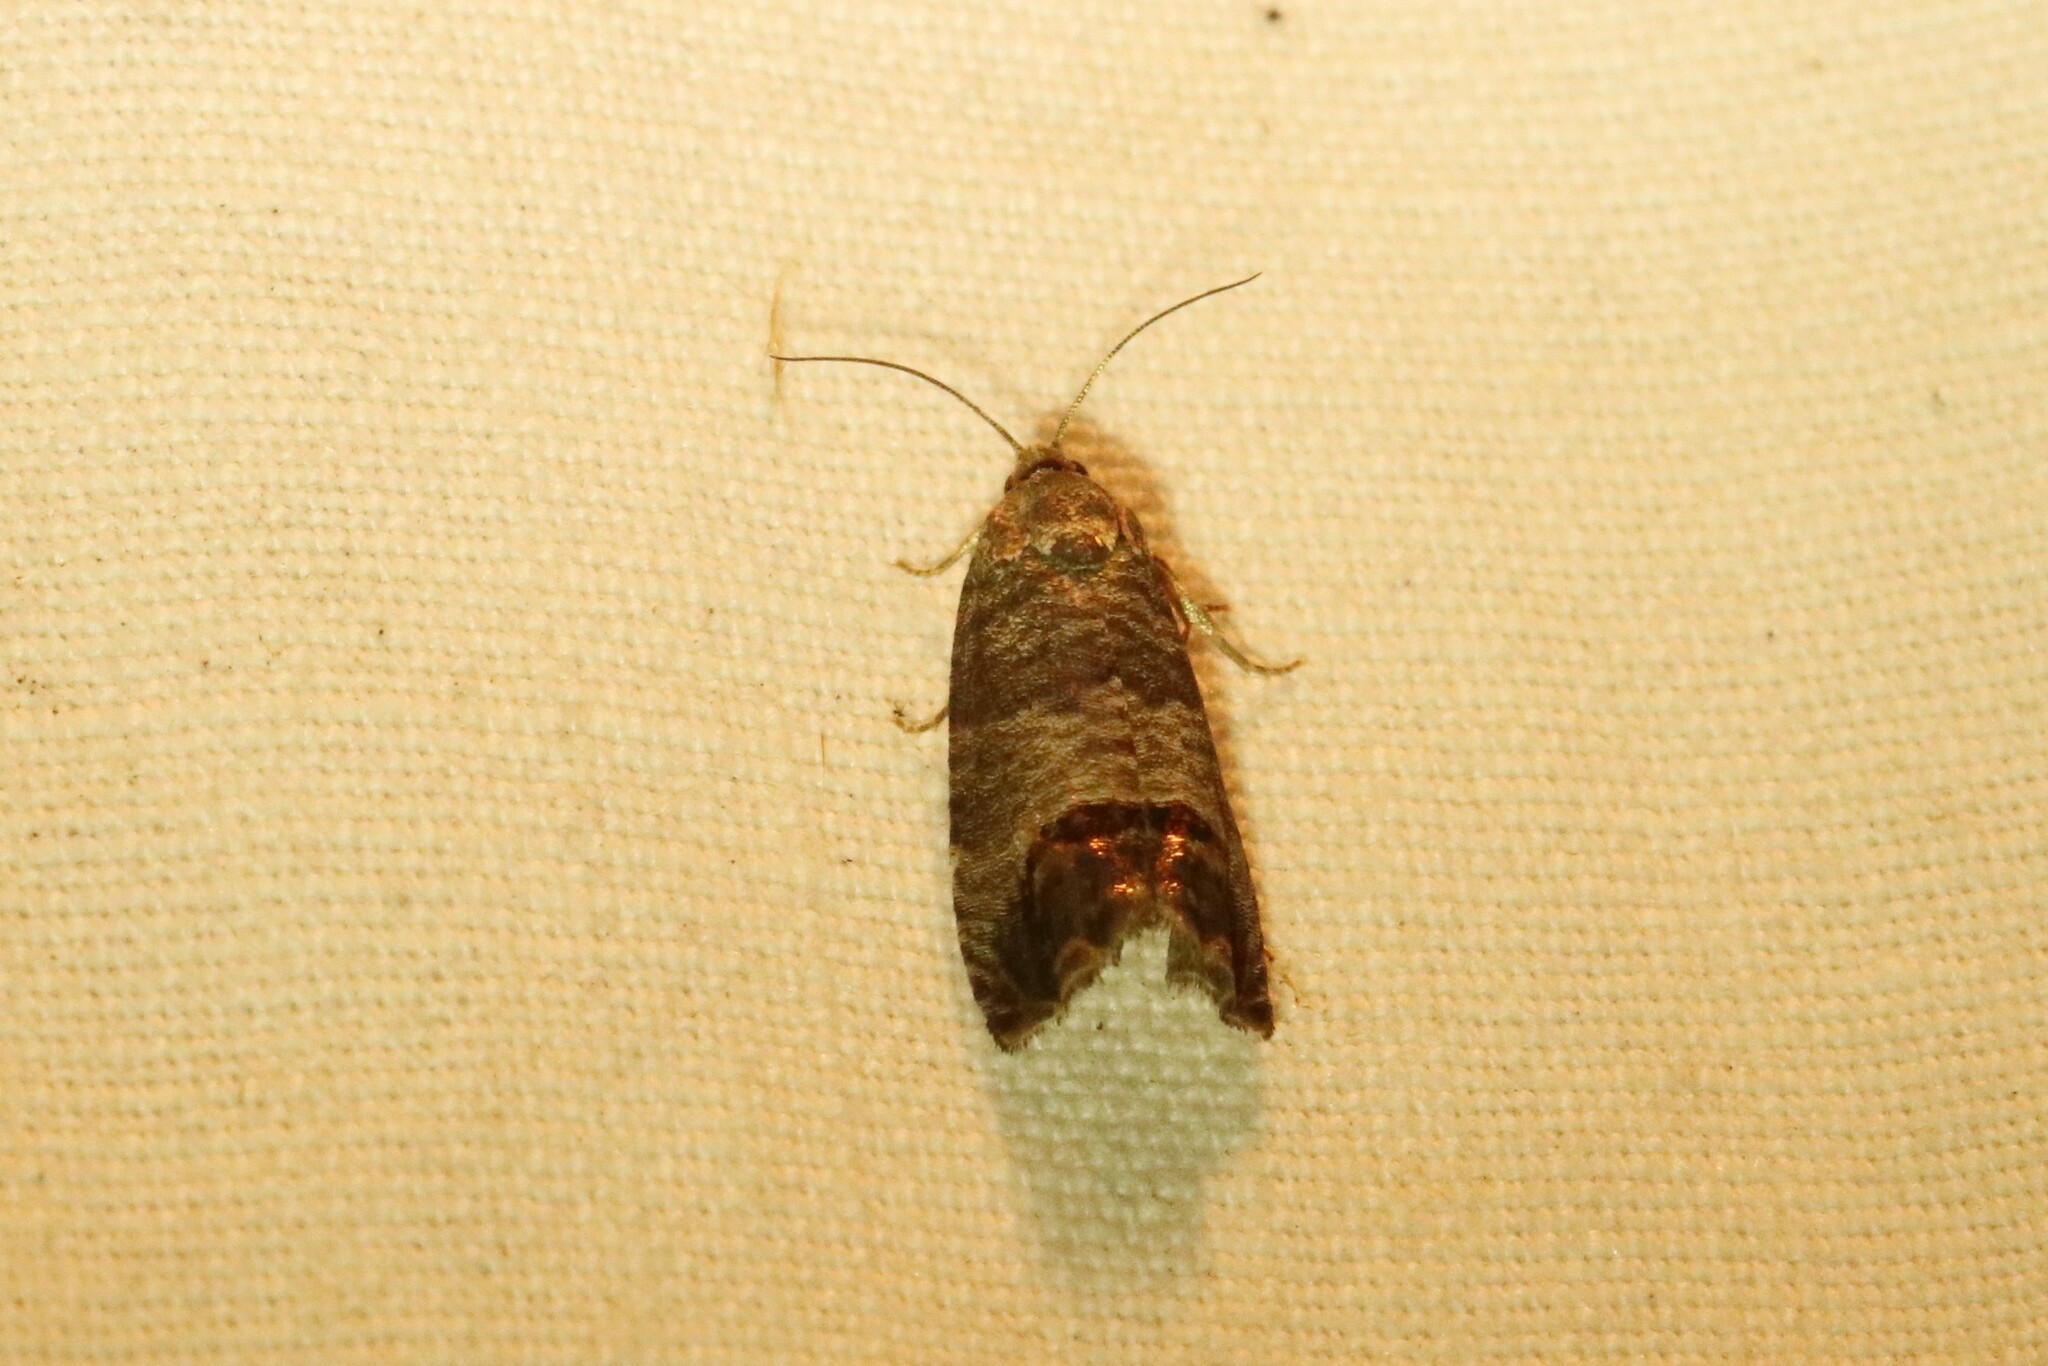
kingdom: Animalia
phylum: Arthropoda
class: Insecta
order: Lepidoptera
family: Tortricidae
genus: Cydia
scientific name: Cydia pomonella
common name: Codling moth
